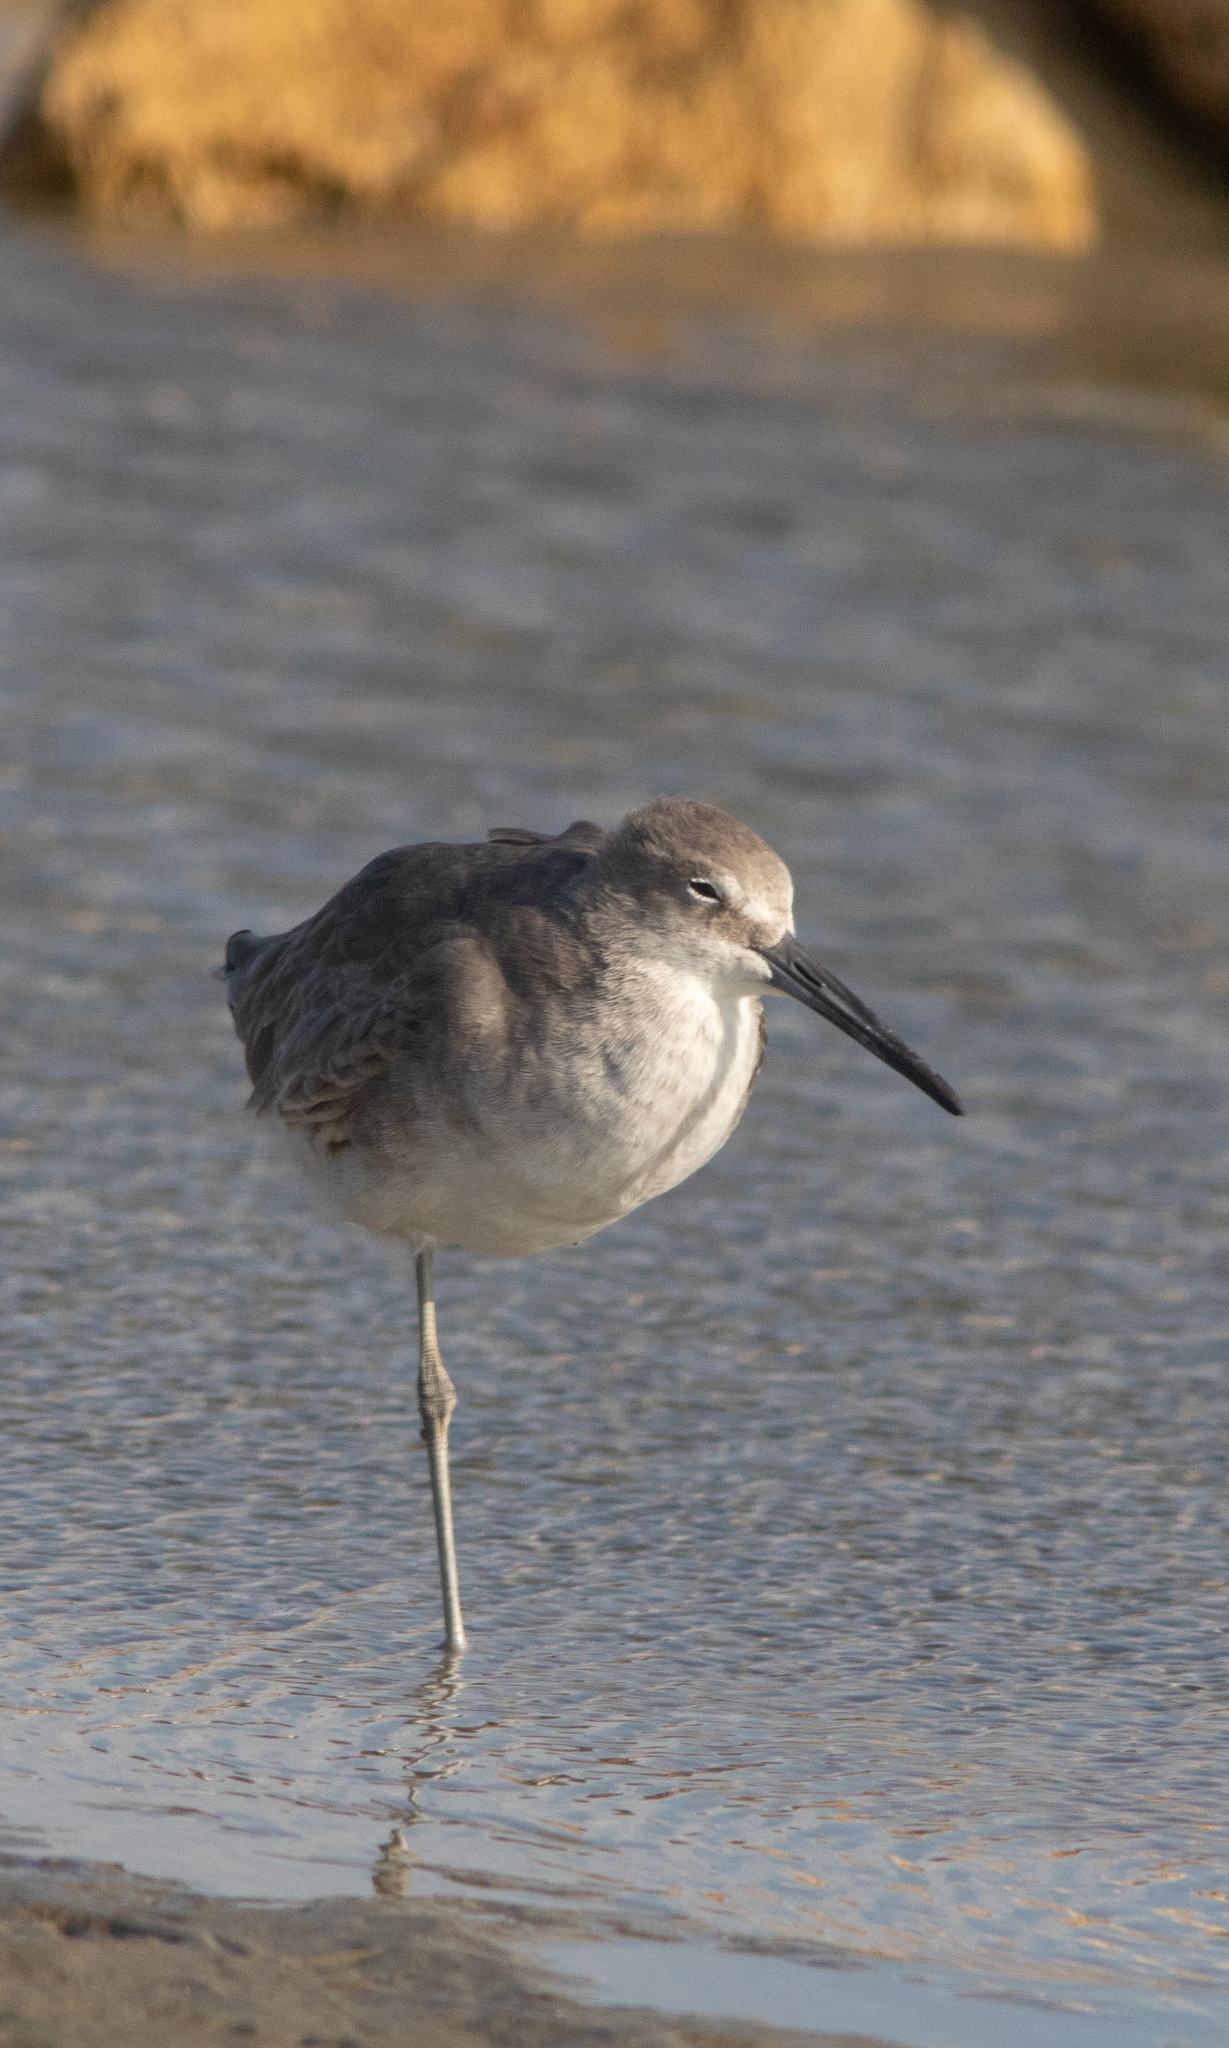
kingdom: Animalia
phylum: Chordata
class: Aves
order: Charadriiformes
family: Scolopacidae
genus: Tringa
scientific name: Tringa semipalmata
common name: Willet
